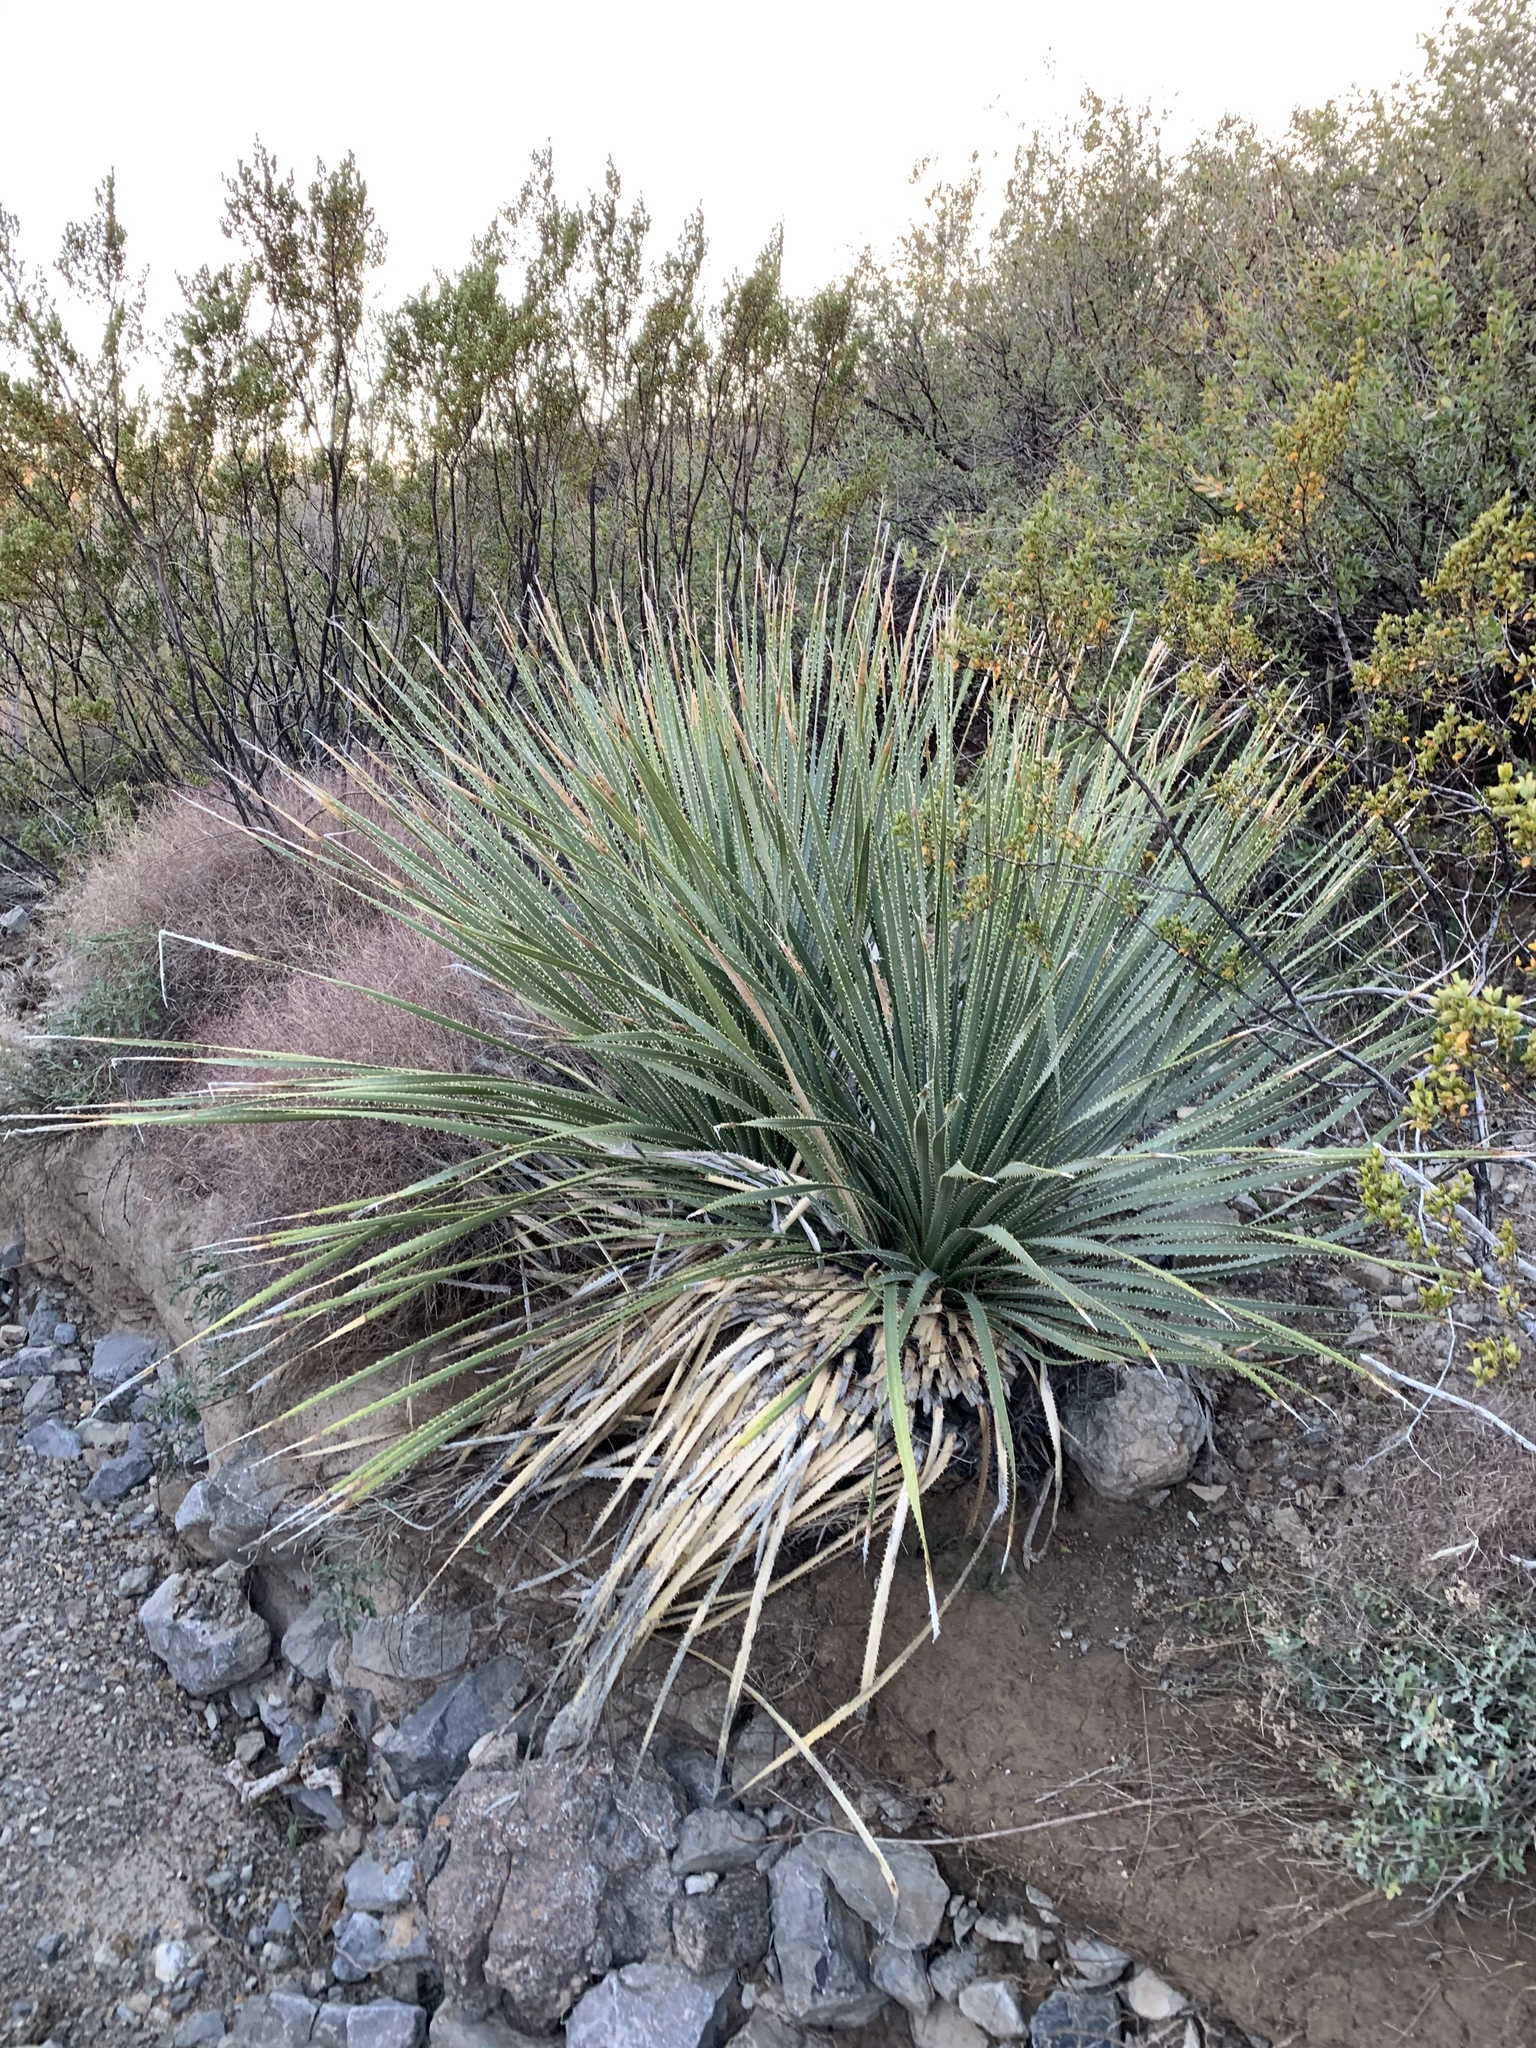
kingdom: Plantae
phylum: Tracheophyta
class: Liliopsida
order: Asparagales
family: Asparagaceae
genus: Dasylirion
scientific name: Dasylirion wheeleri
